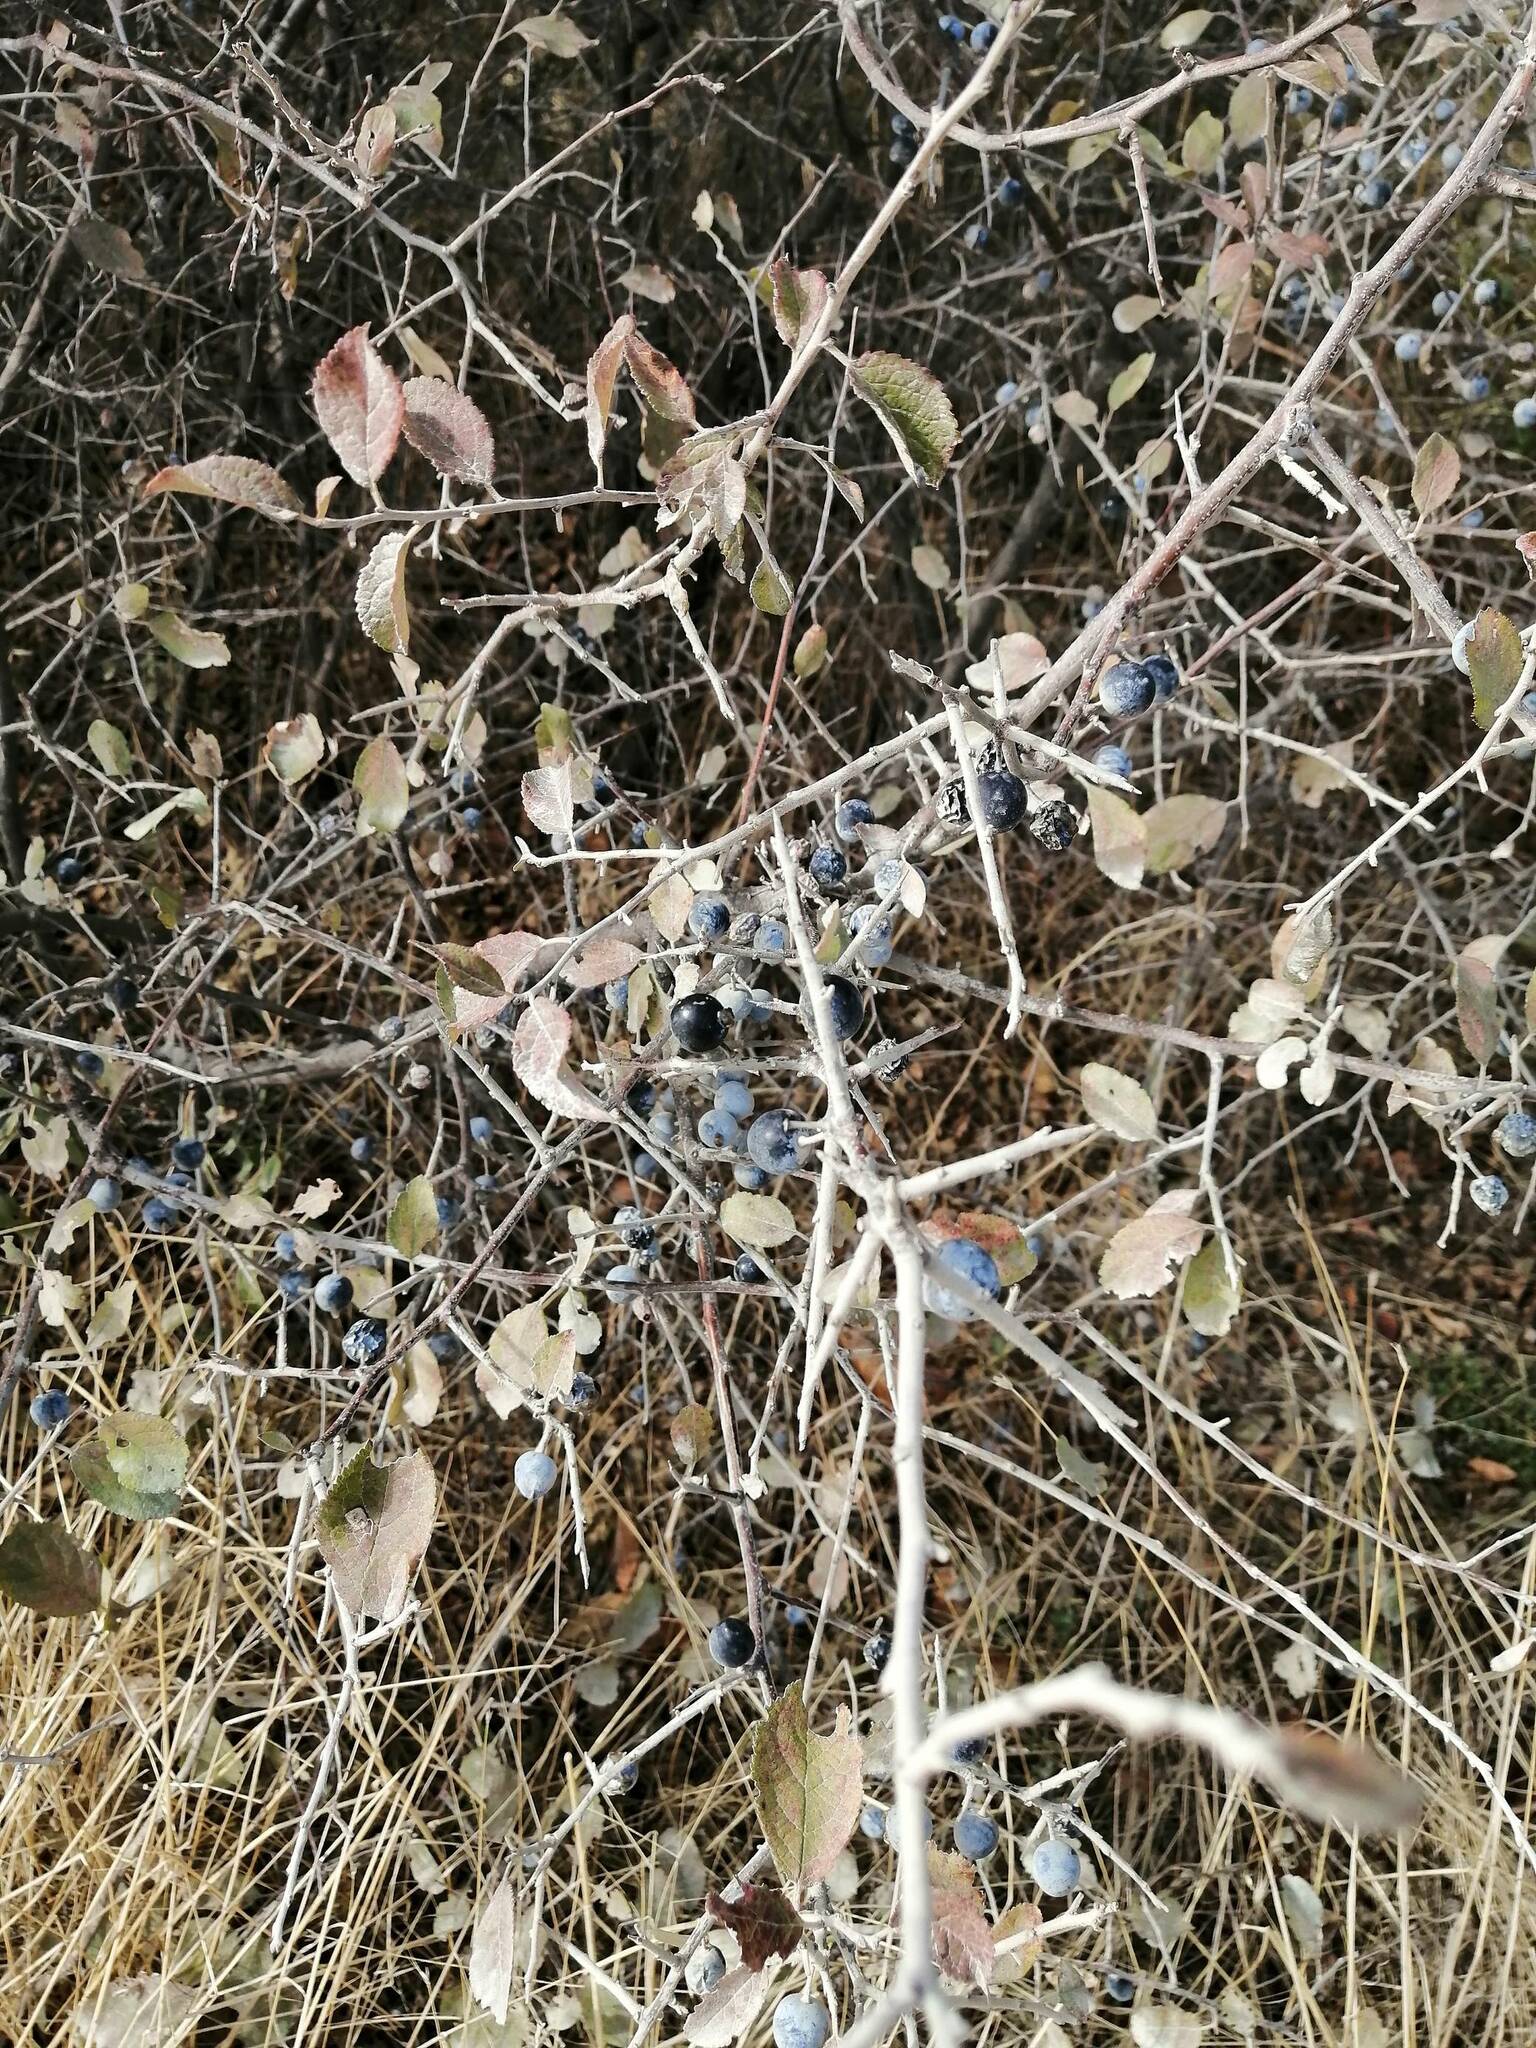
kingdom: Plantae
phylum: Tracheophyta
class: Magnoliopsida
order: Rosales
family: Rosaceae
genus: Prunus
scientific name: Prunus spinosa
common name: Blackthorn
